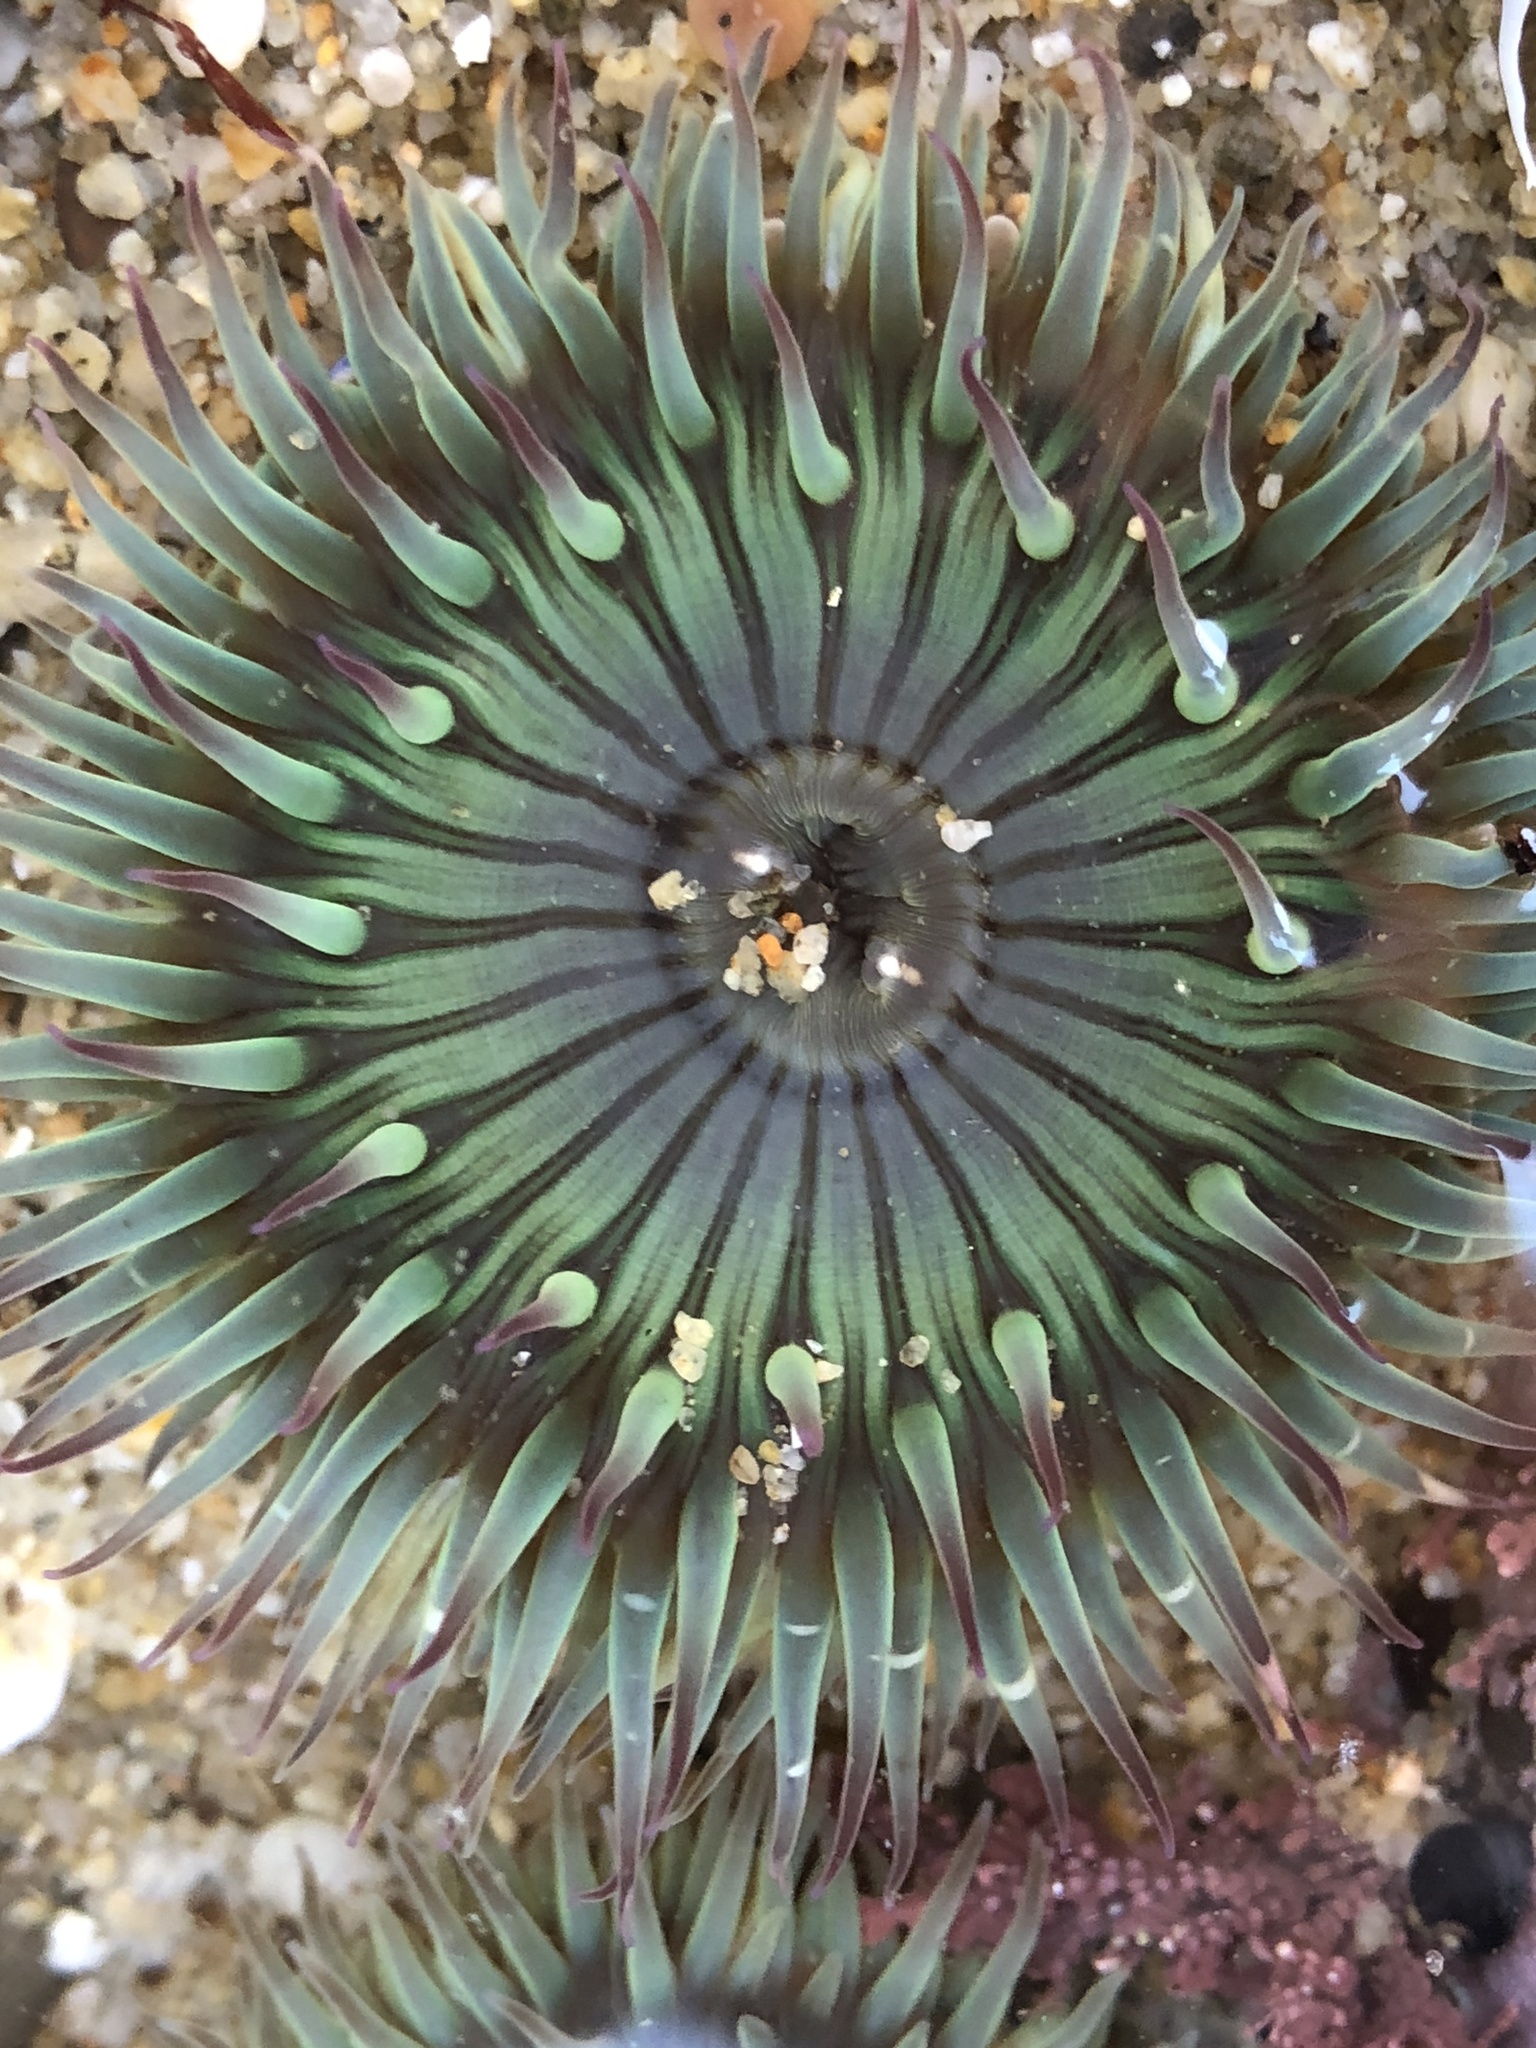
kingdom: Animalia
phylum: Cnidaria
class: Anthozoa
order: Actiniaria
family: Actiniidae
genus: Anthopleura
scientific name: Anthopleura sola
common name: Sun anemone
